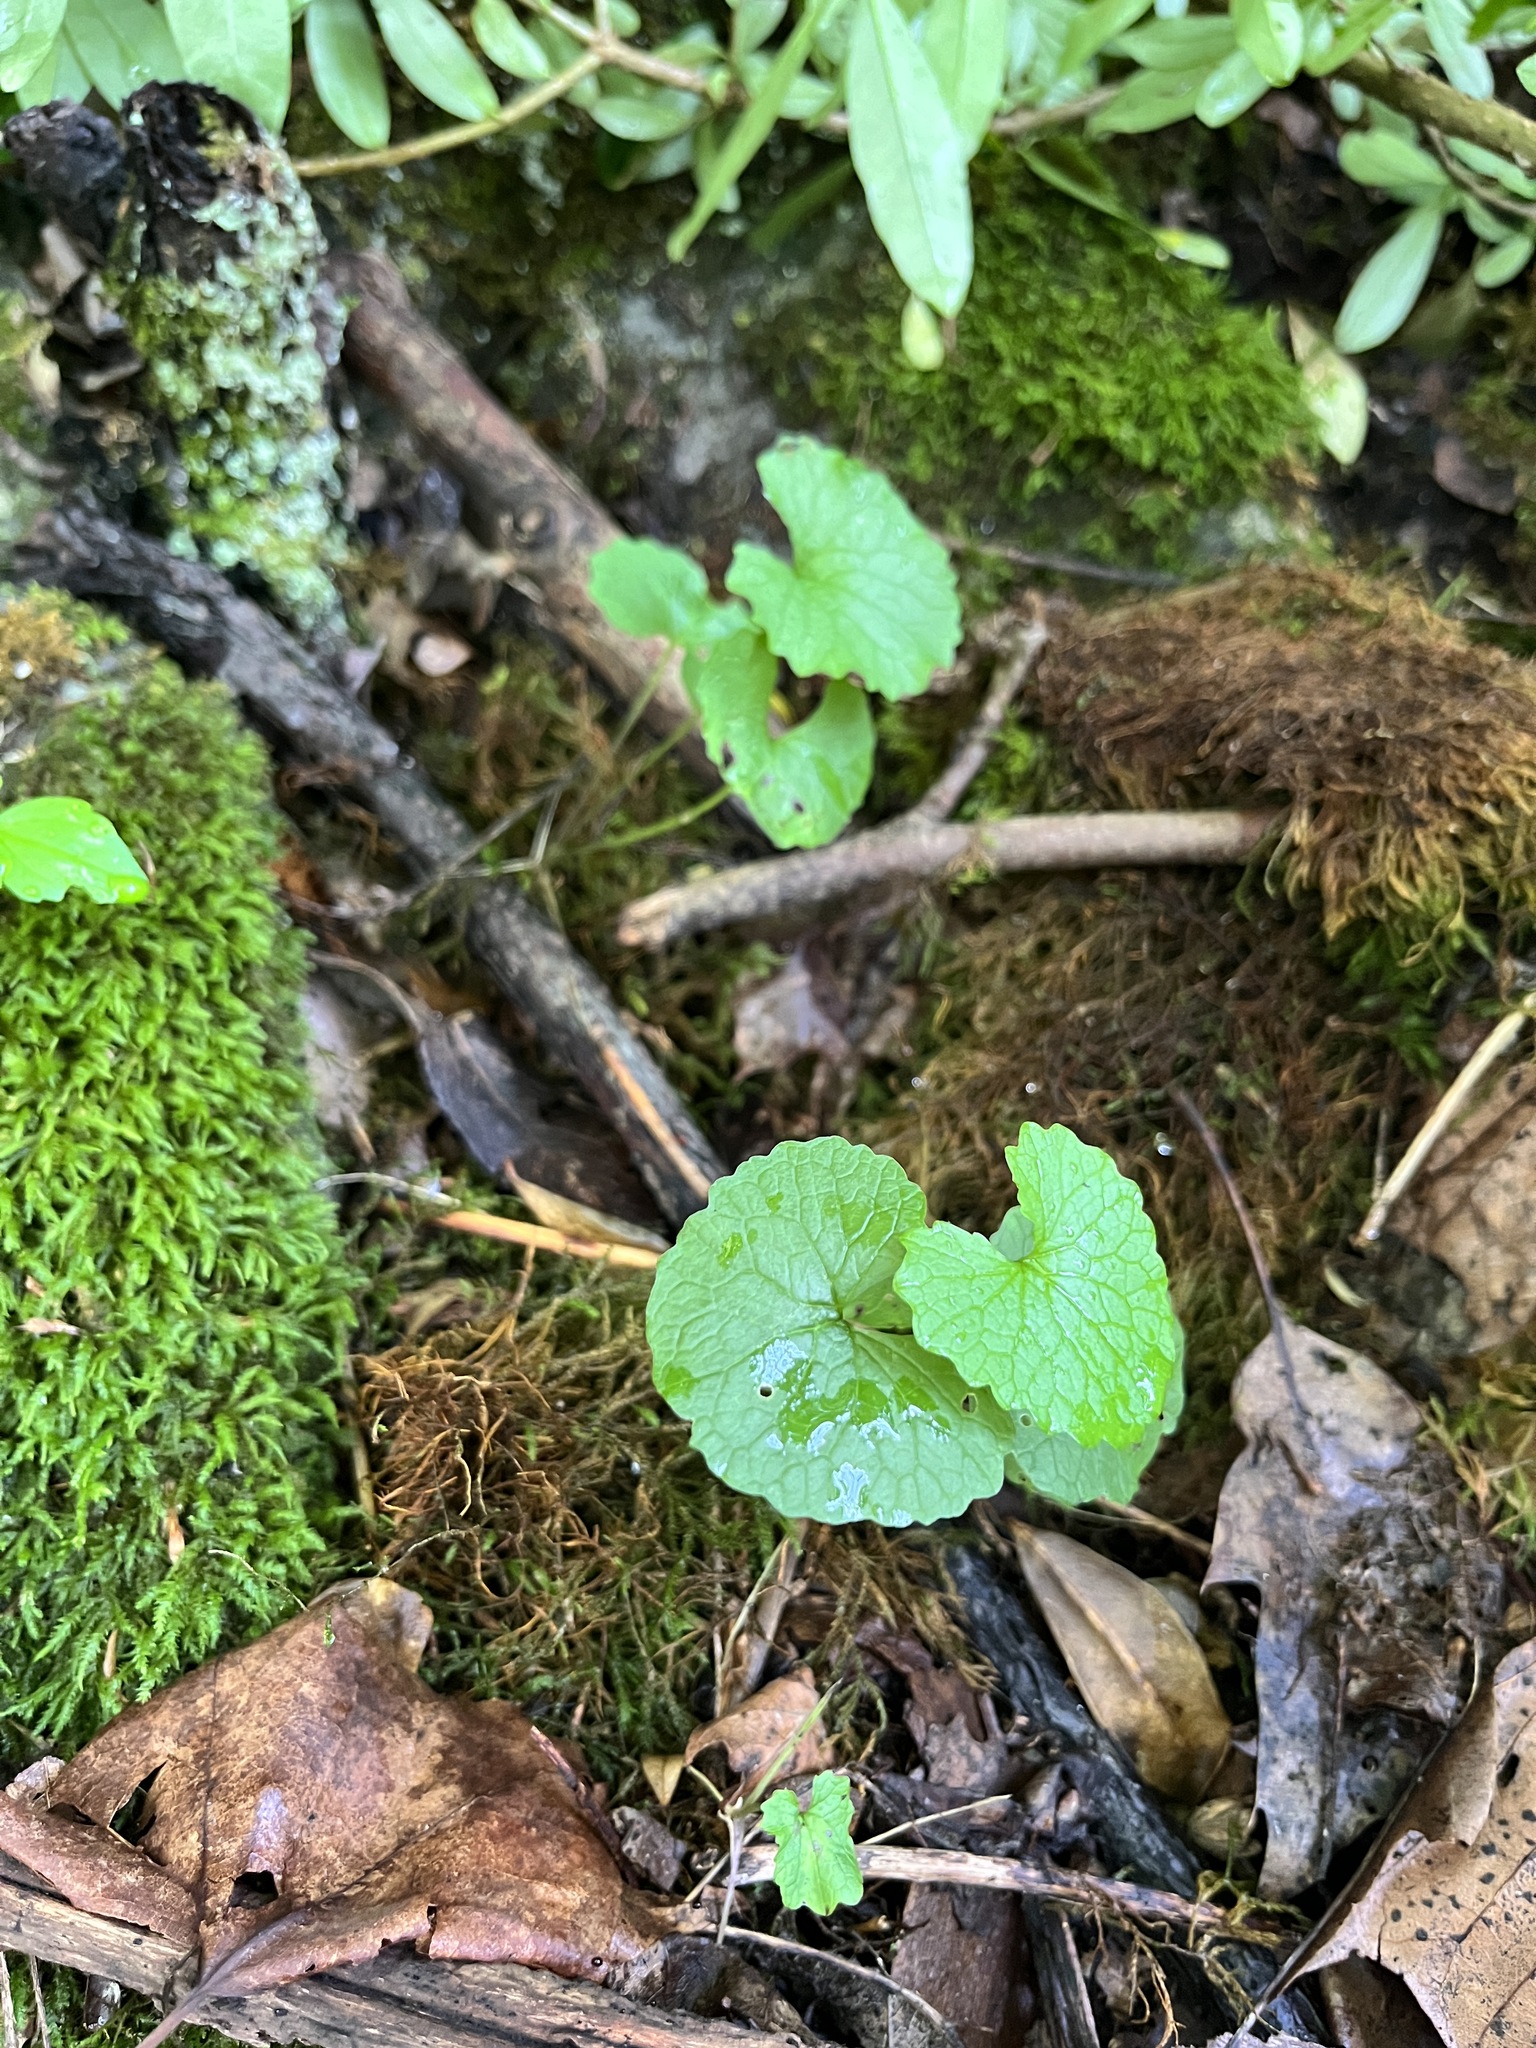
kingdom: Plantae
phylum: Tracheophyta
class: Magnoliopsida
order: Brassicales
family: Brassicaceae
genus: Alliaria
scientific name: Alliaria petiolata
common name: Garlic mustard
